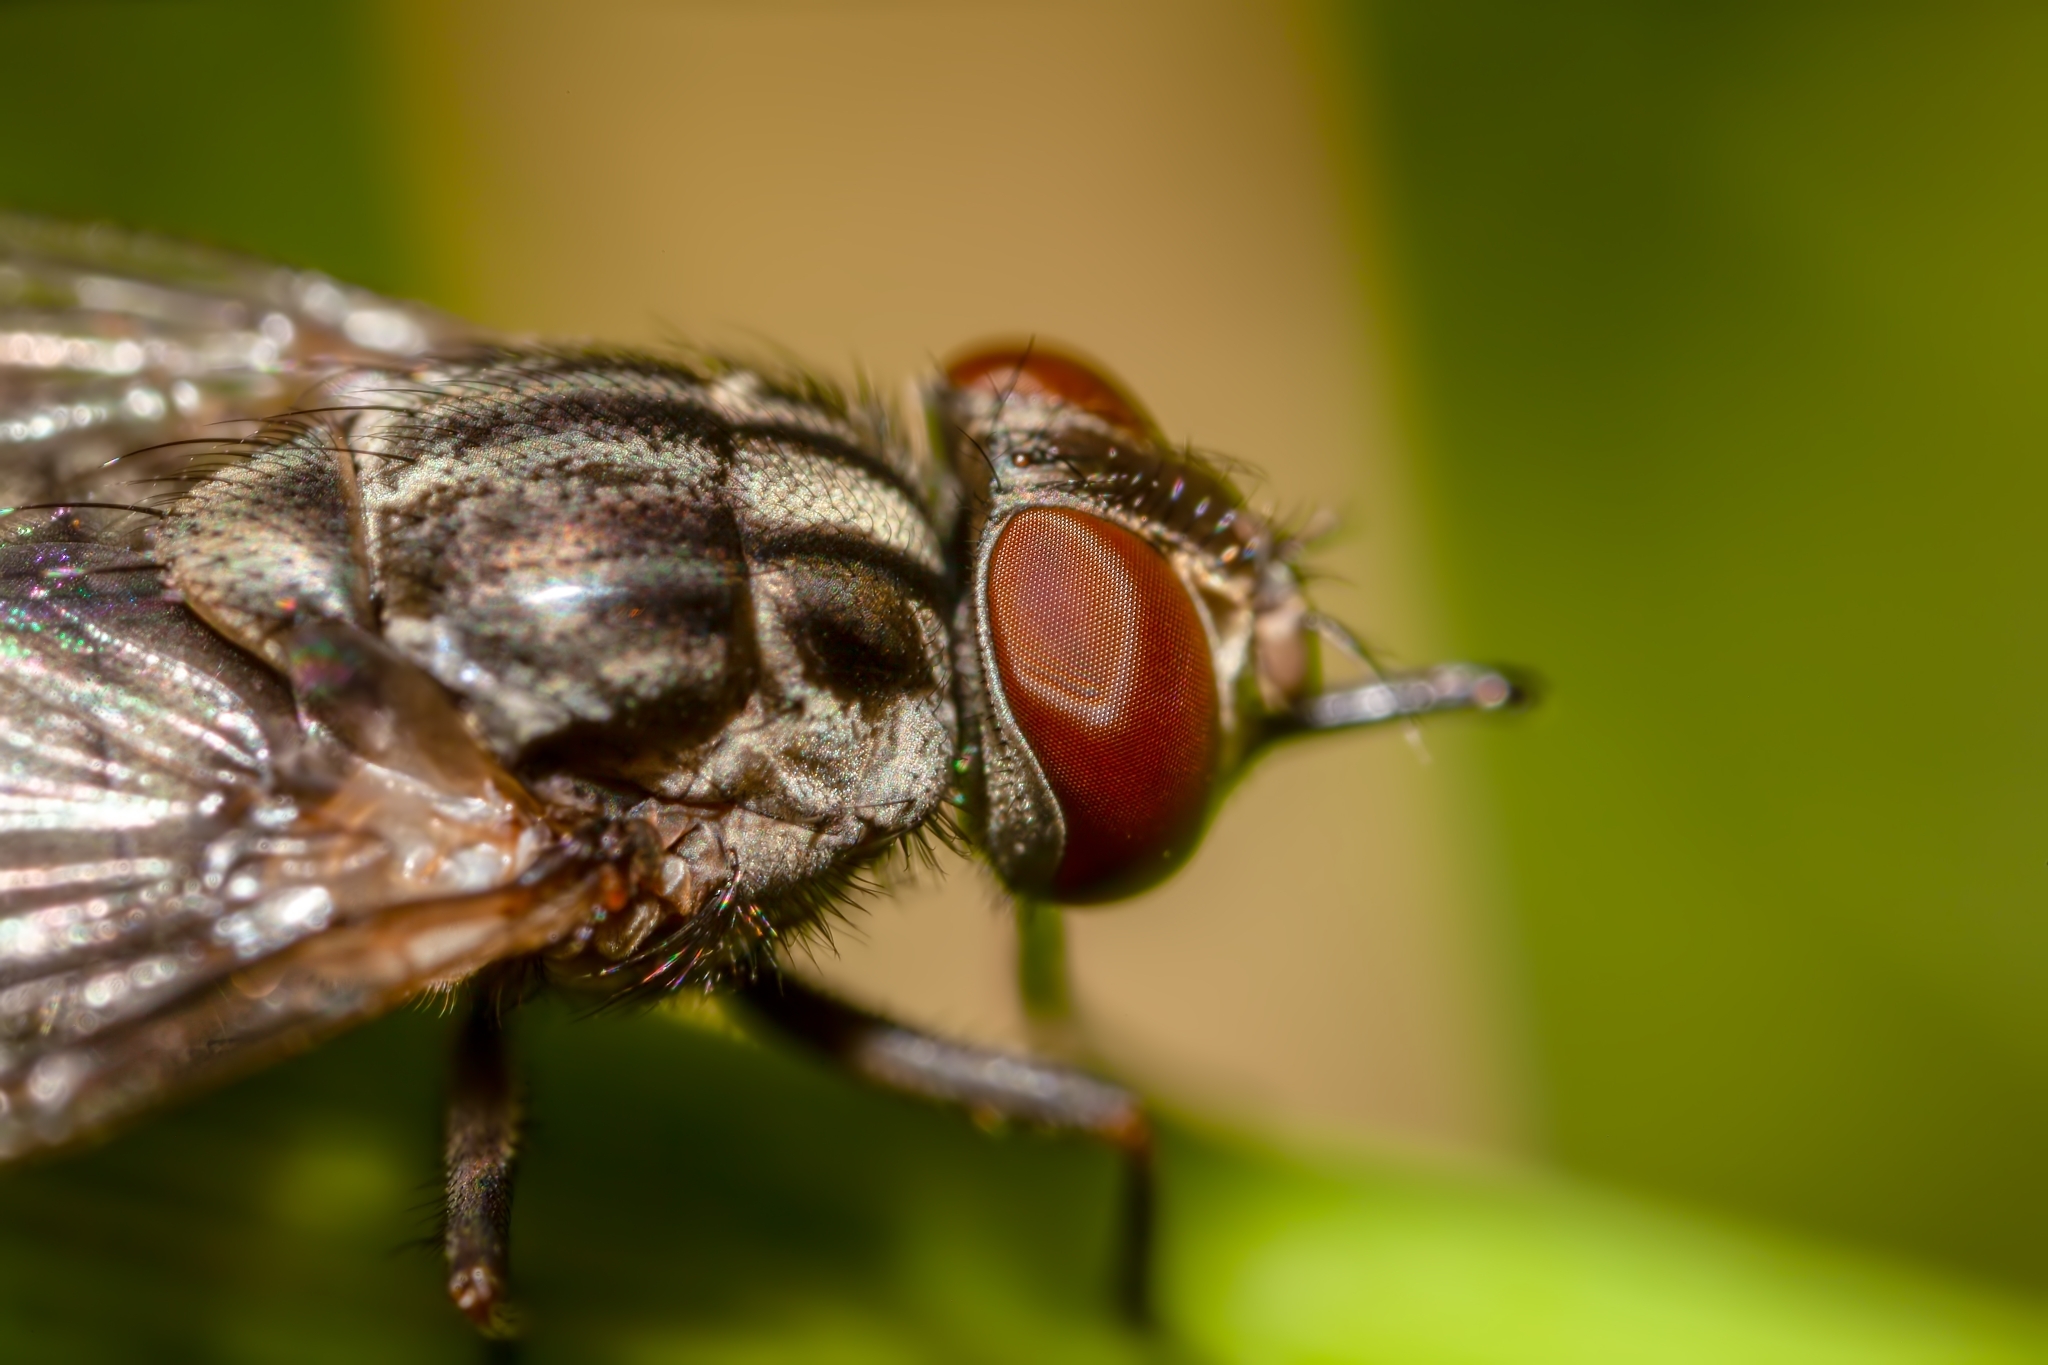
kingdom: Animalia
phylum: Arthropoda
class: Insecta
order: Diptera
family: Muscidae
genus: Stomoxys
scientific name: Stomoxys calcitrans
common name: Stable fly
